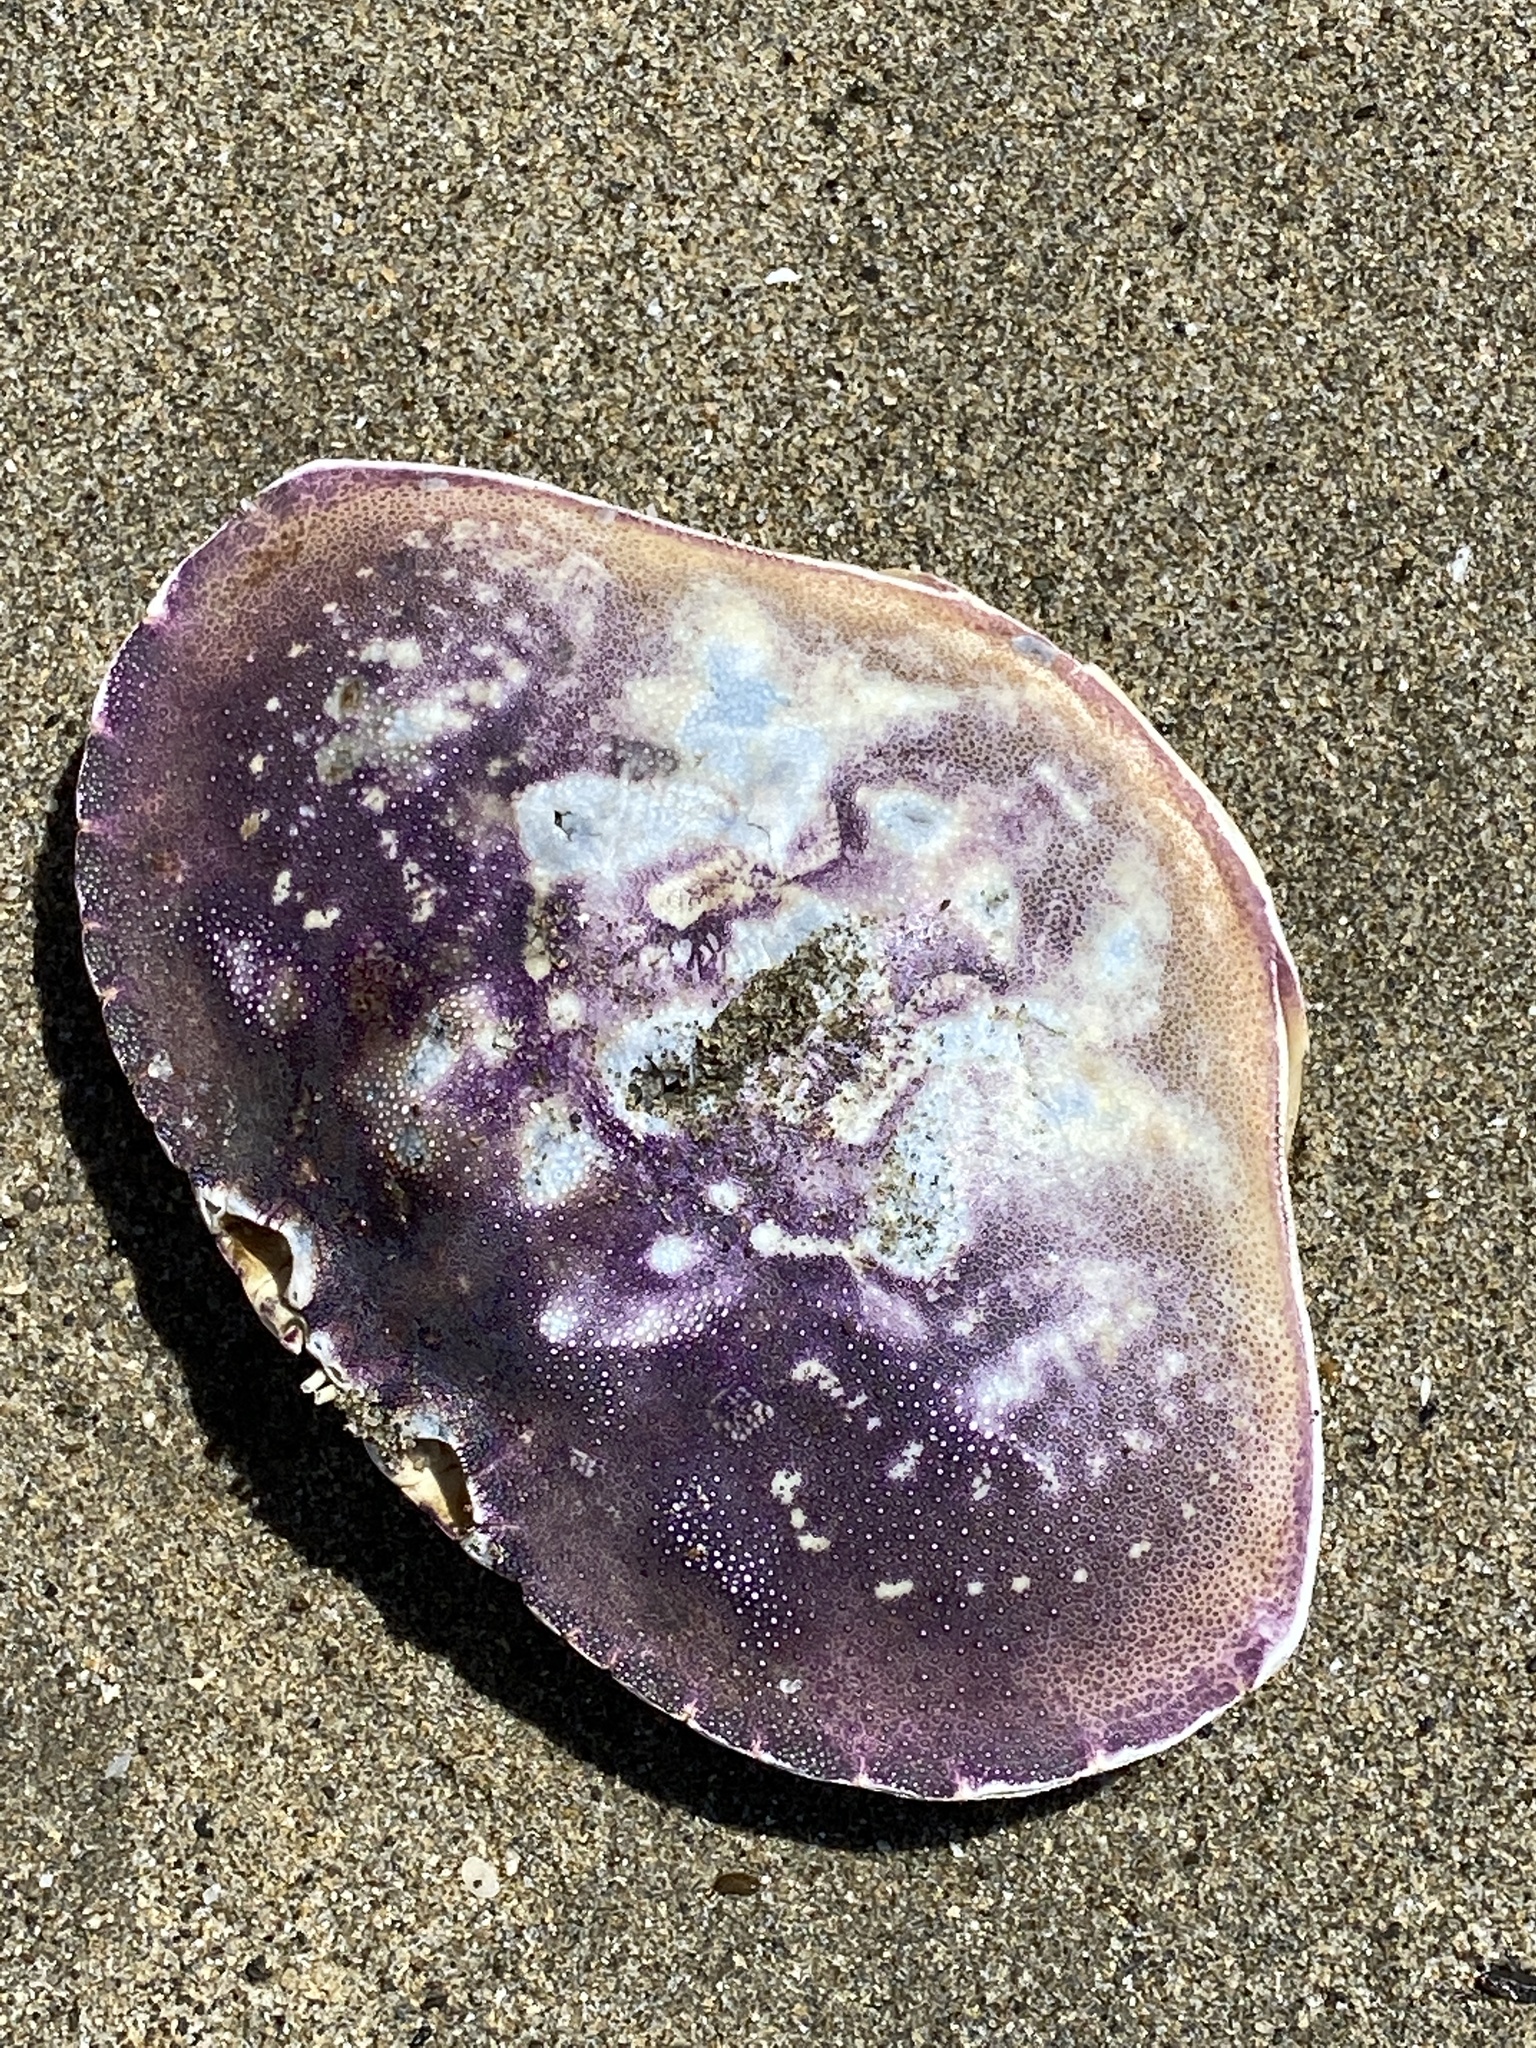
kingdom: Animalia
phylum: Arthropoda
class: Malacostraca
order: Decapoda
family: Cancridae
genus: Metacarcinus
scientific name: Metacarcinus magister
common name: Californian crab
